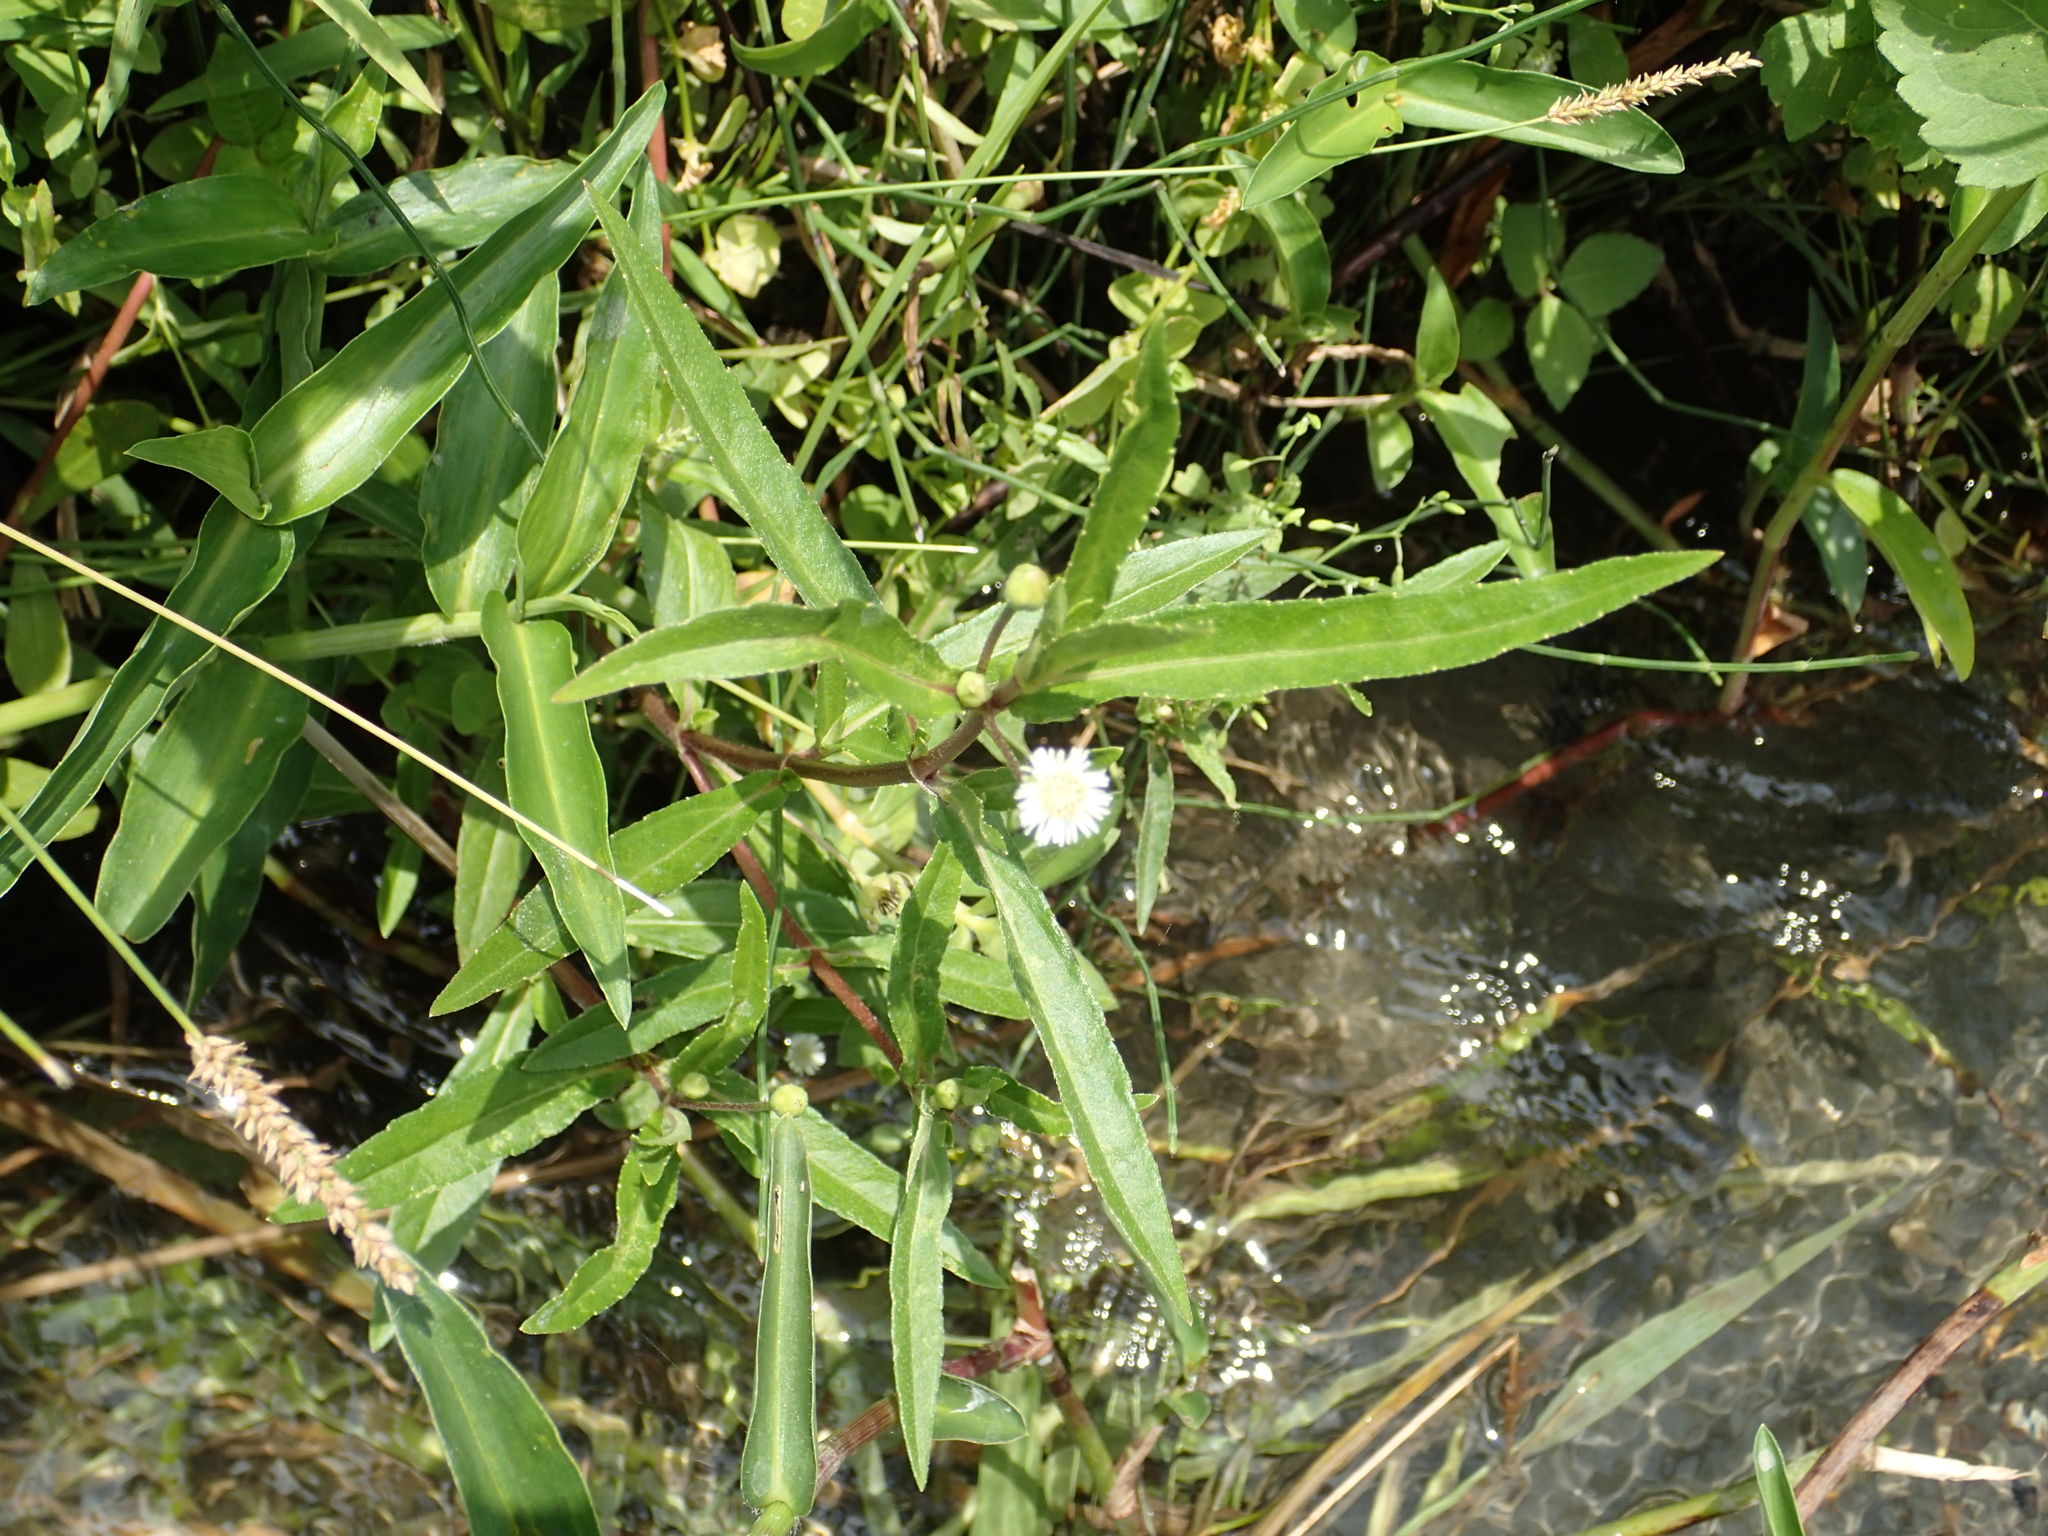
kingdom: Plantae
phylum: Tracheophyta
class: Magnoliopsida
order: Asterales
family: Asteraceae
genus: Eclipta
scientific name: Eclipta prostrata
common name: False daisy
